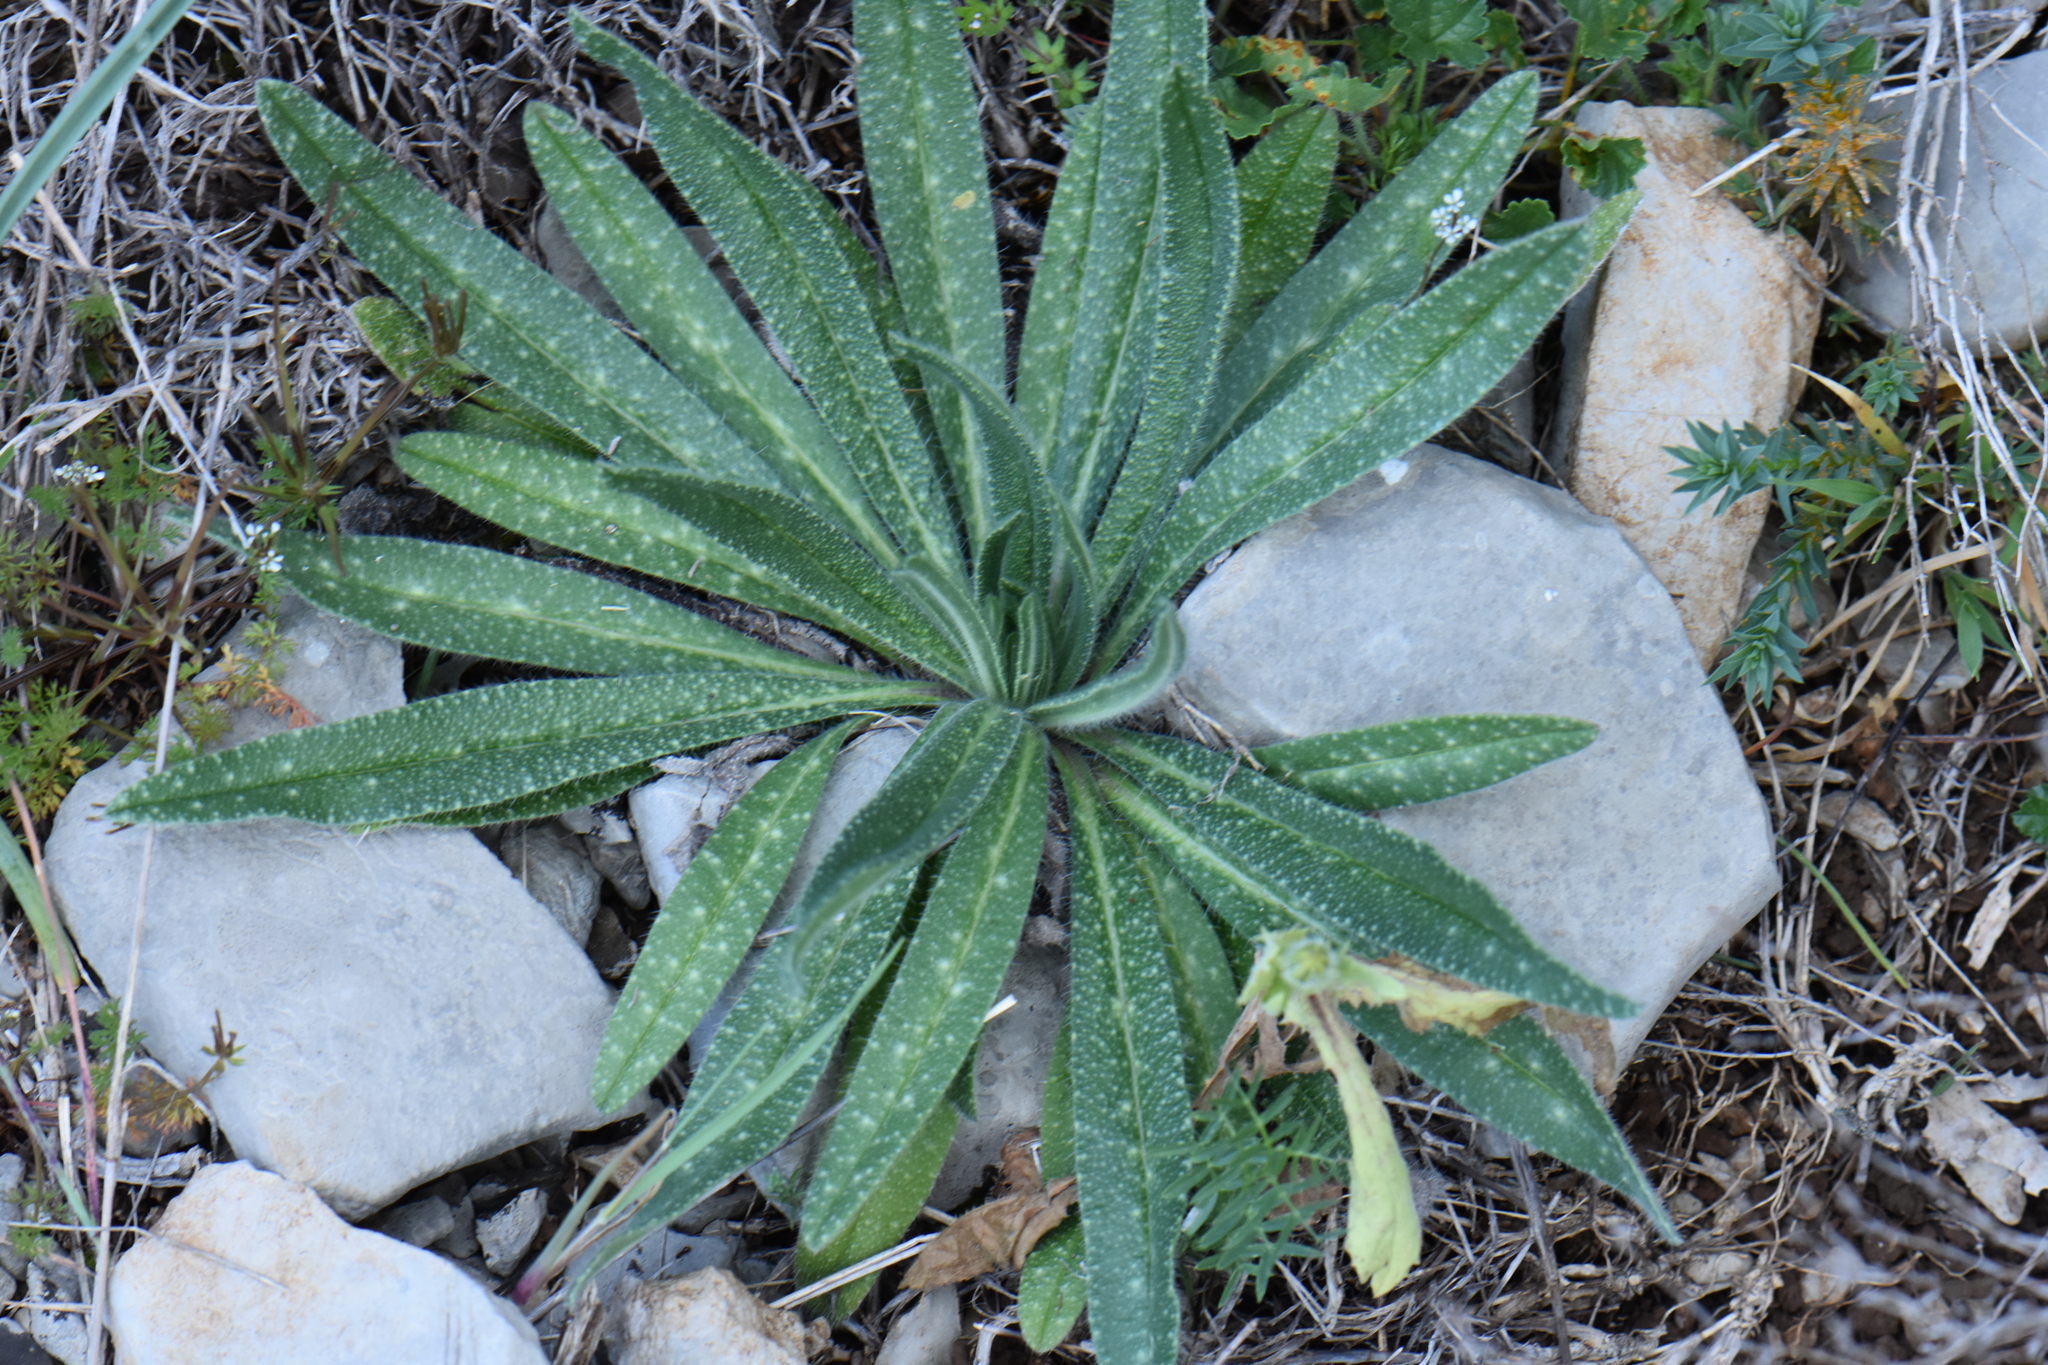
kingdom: Plantae
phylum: Tracheophyta
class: Magnoliopsida
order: Boraginales
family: Boraginaceae
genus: Echium
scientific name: Echium vulgare
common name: Common viper's bugloss
